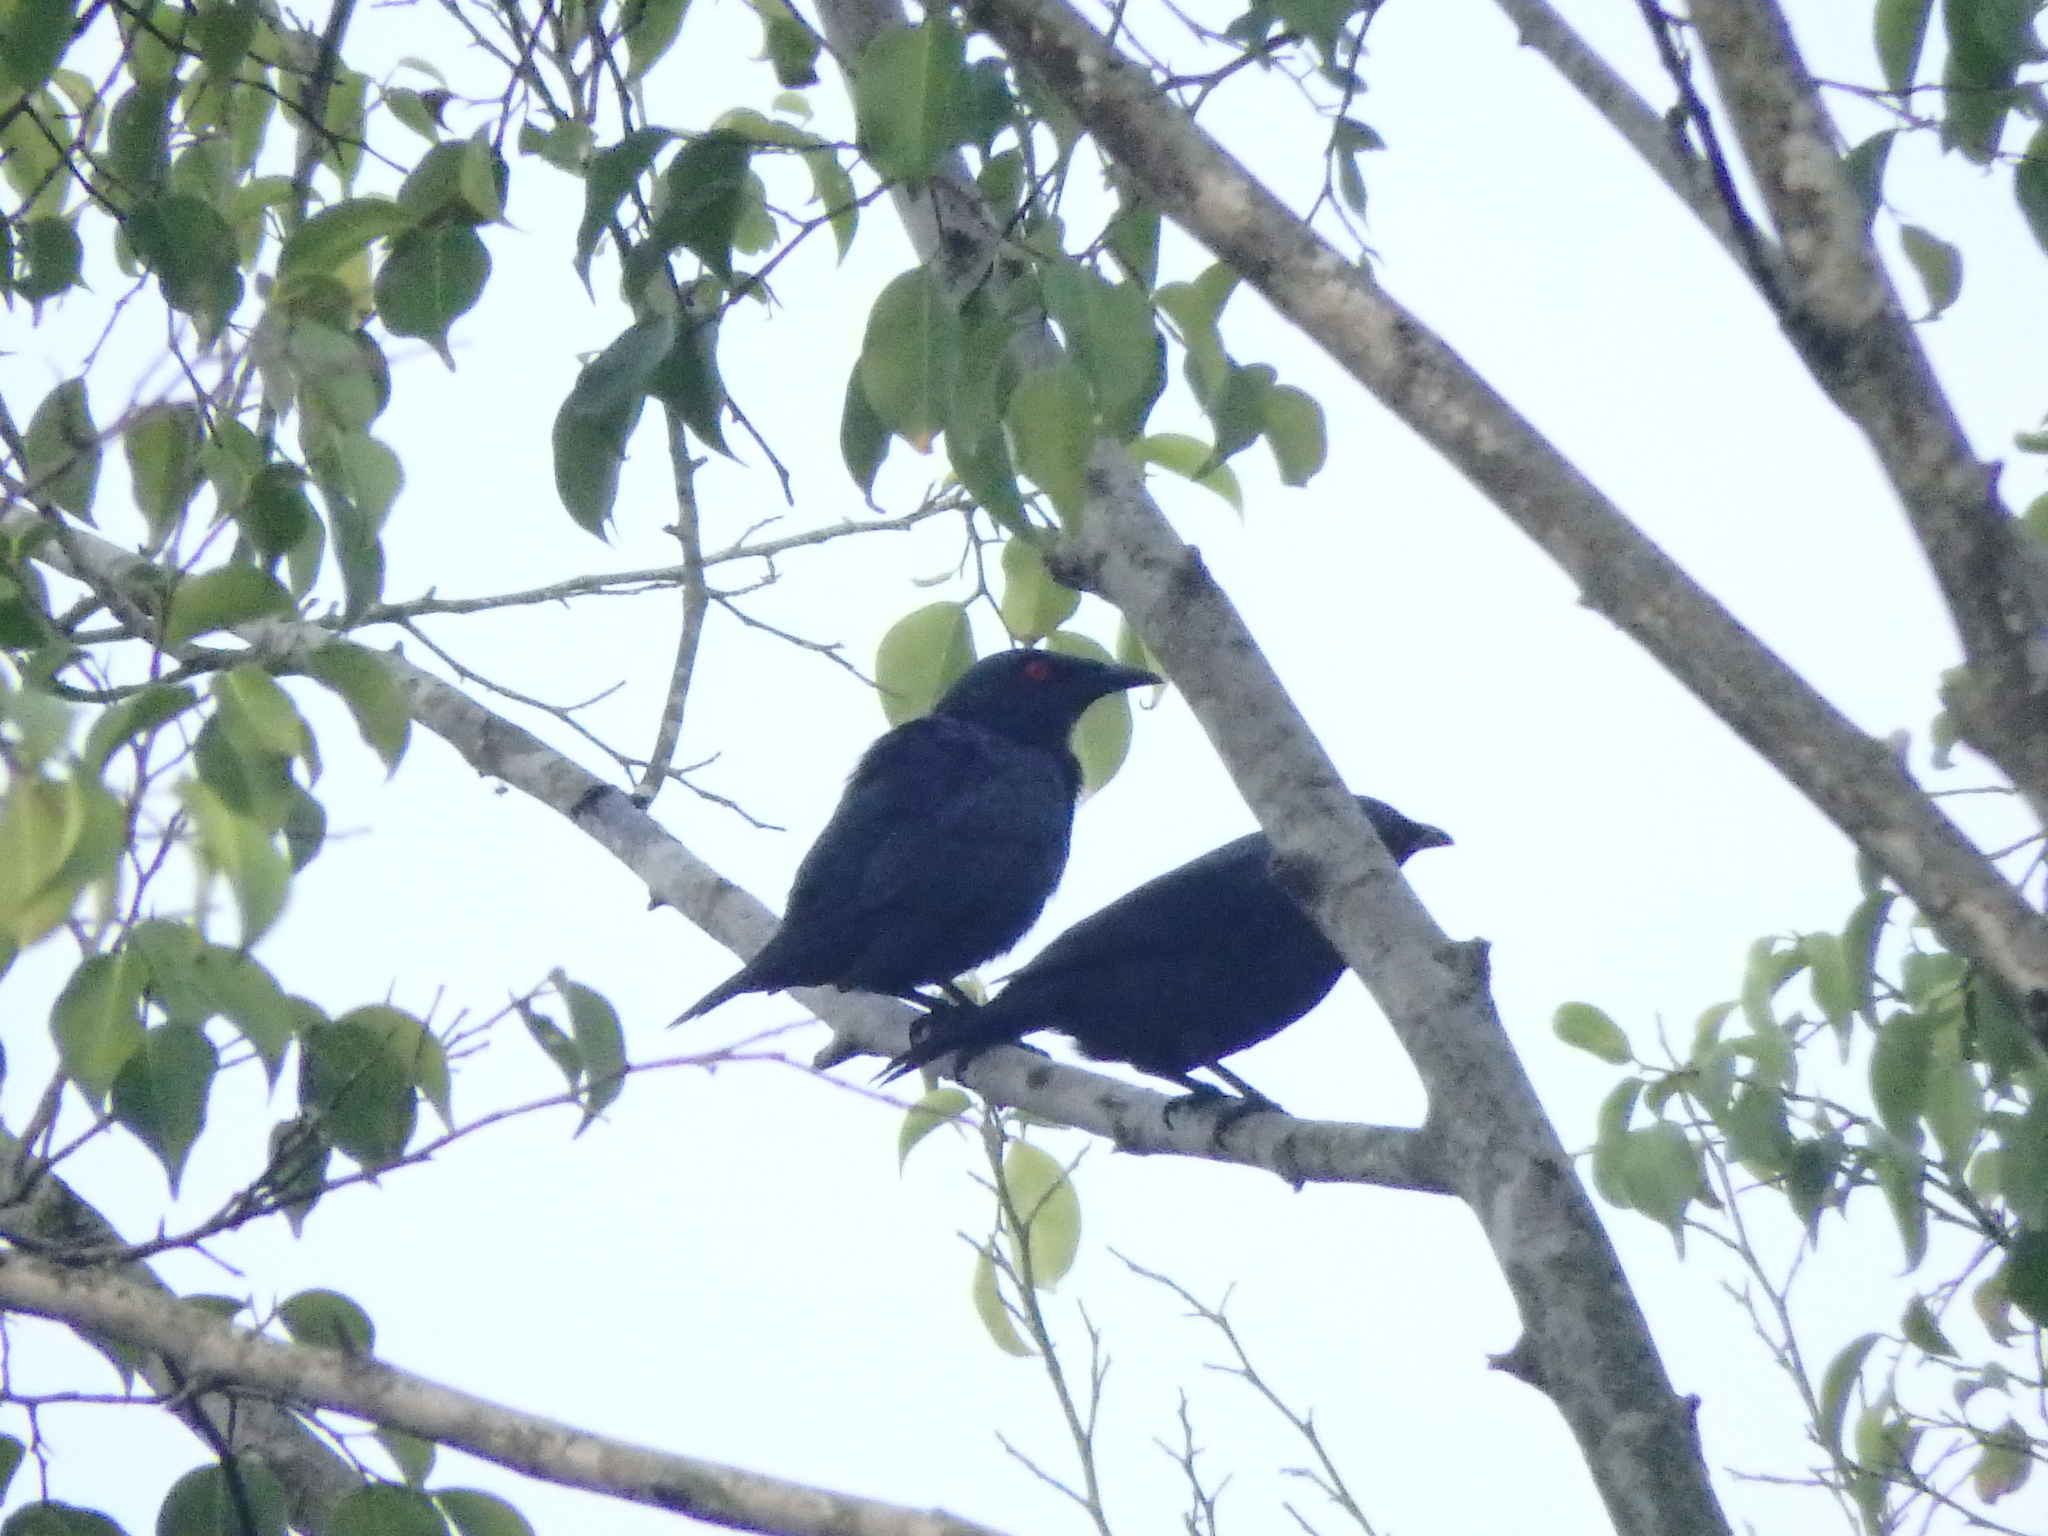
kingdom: Animalia
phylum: Chordata
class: Aves
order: Passeriformes
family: Sturnidae
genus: Aplonis
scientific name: Aplonis panayensis
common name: Asian glossy starling
